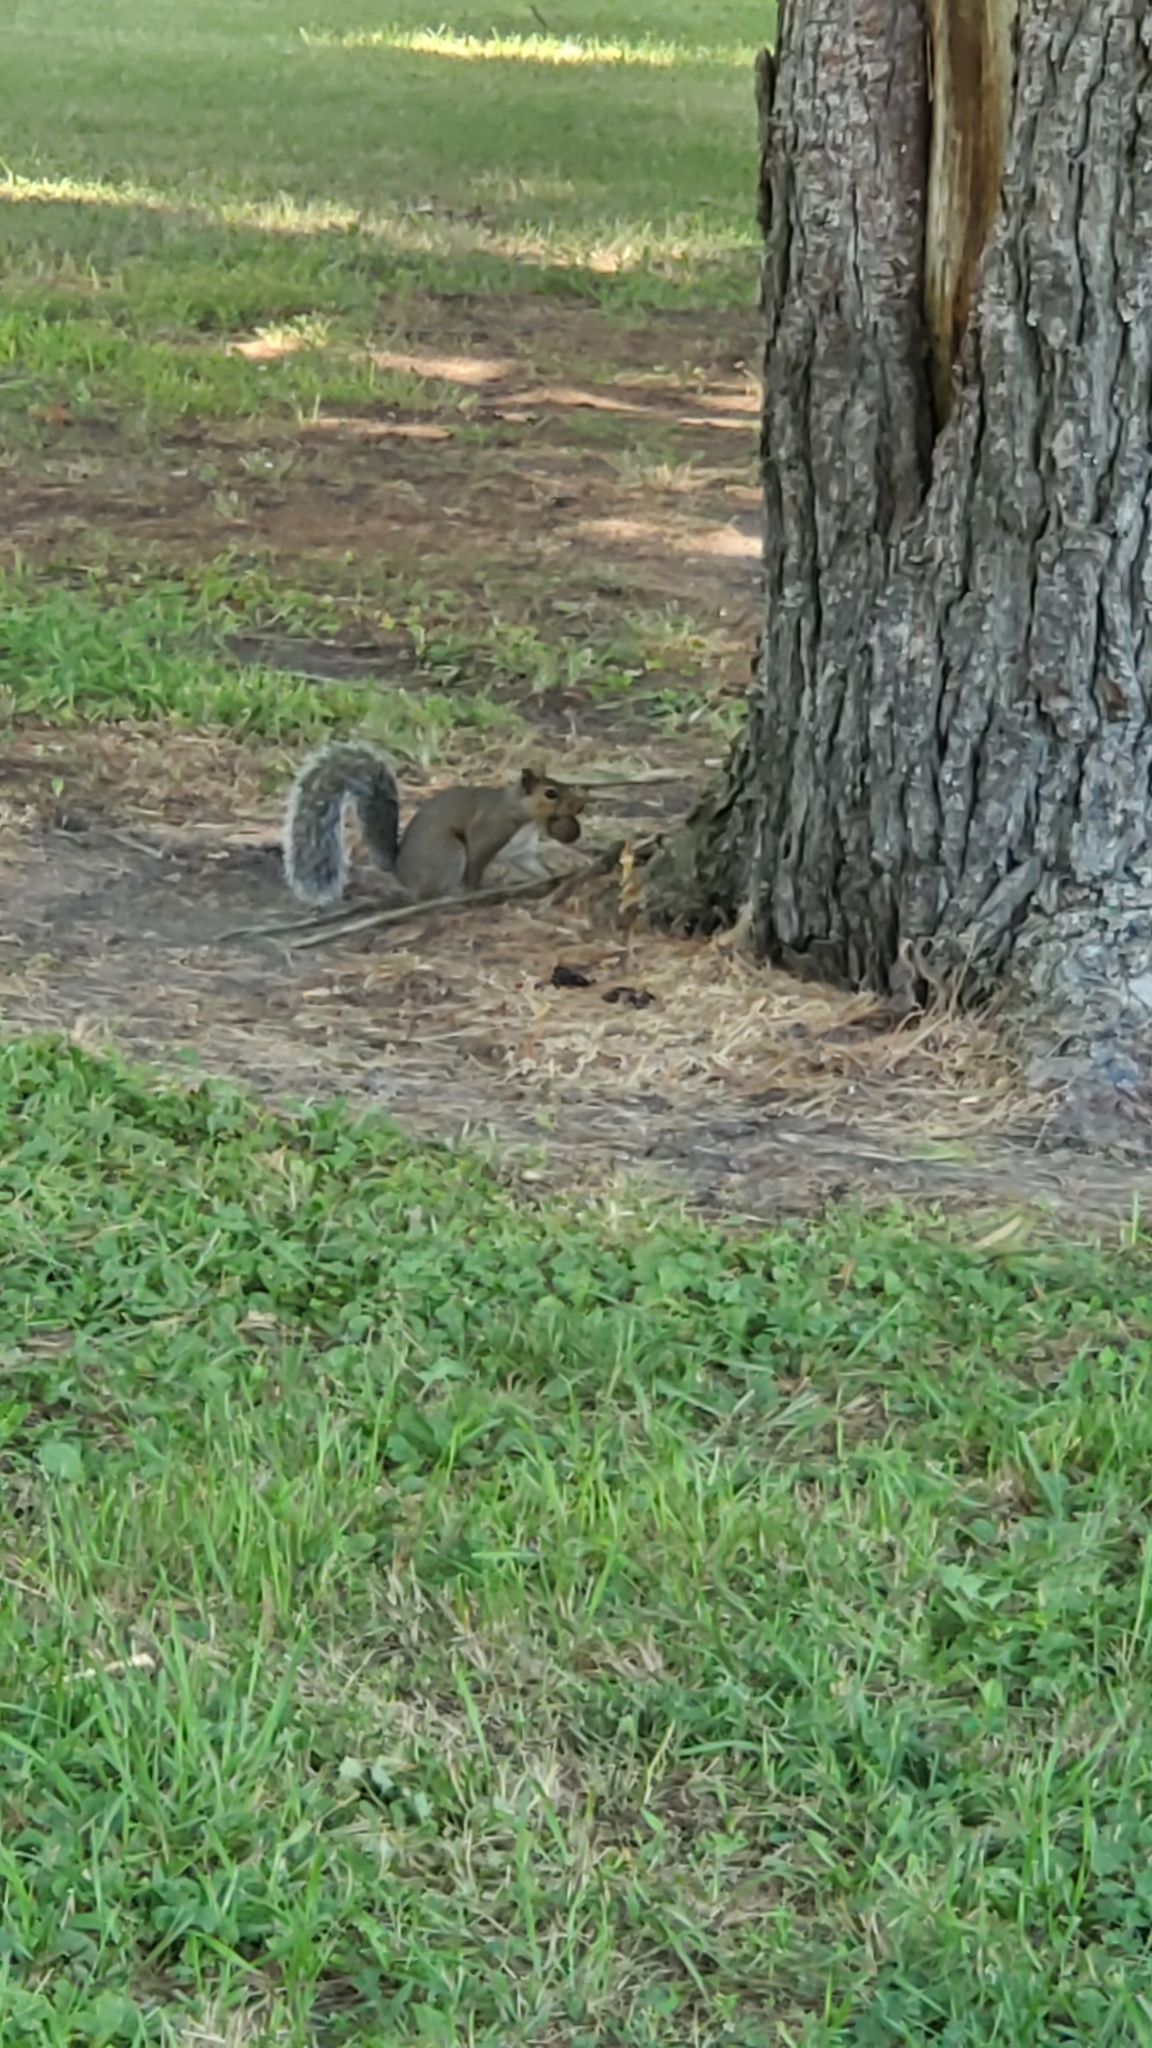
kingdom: Animalia
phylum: Chordata
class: Mammalia
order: Rodentia
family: Sciuridae
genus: Sciurus
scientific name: Sciurus carolinensis
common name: Eastern gray squirrel
